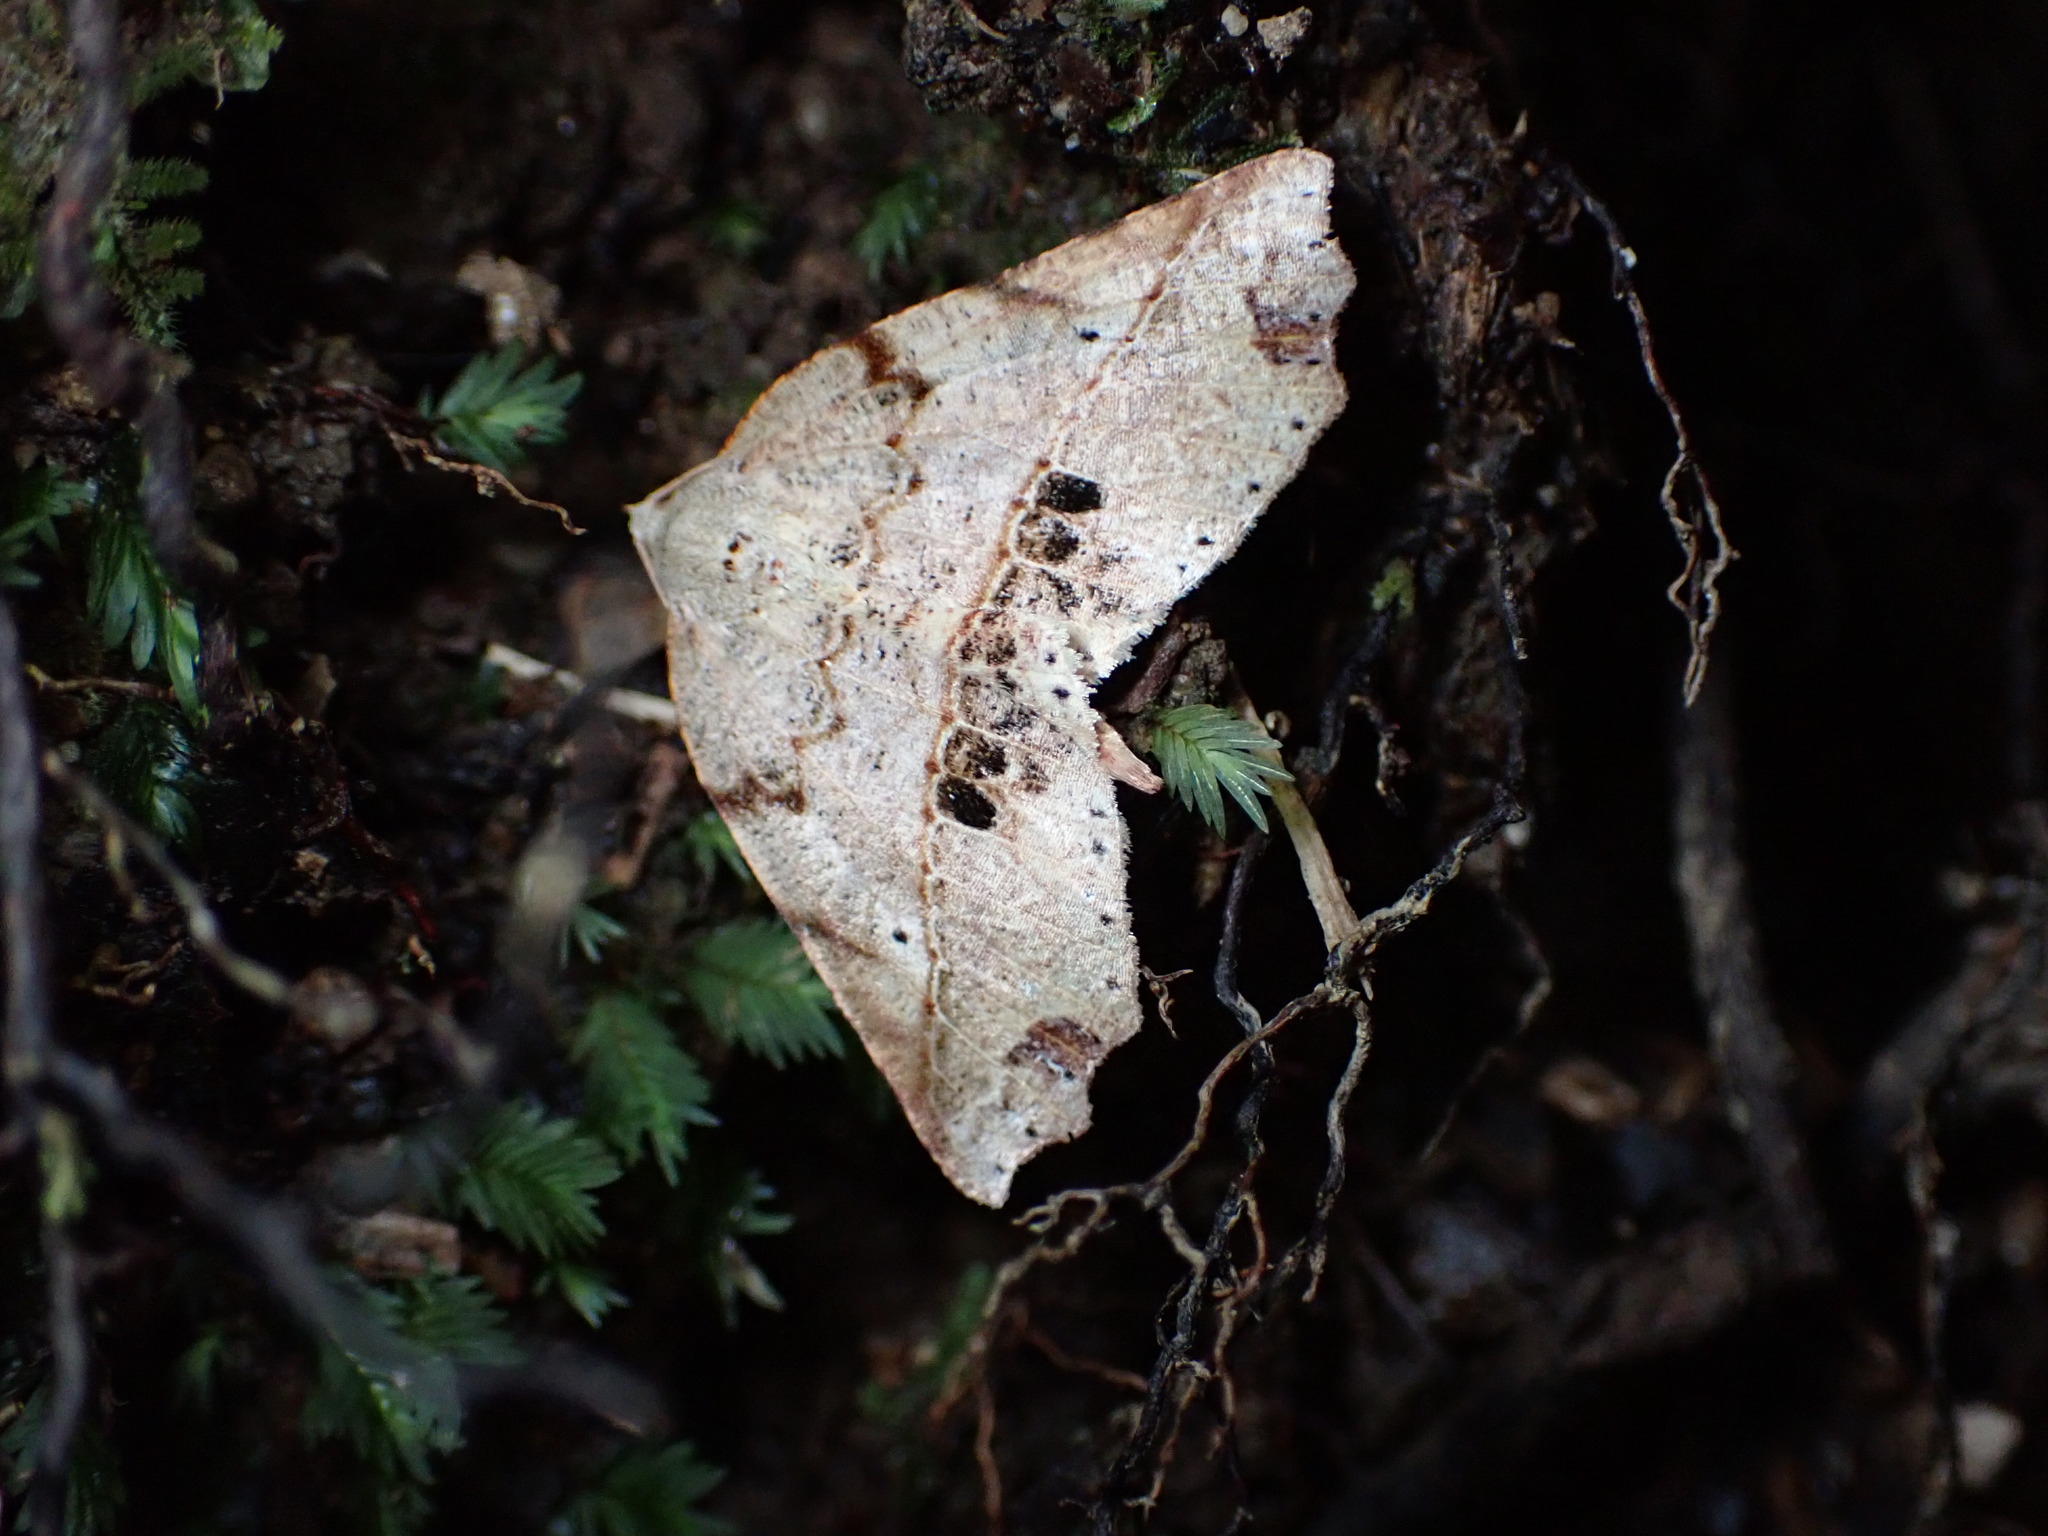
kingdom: Animalia
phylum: Arthropoda
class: Insecta
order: Lepidoptera
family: Geometridae
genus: Ischalis
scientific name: Ischalis gallaria
